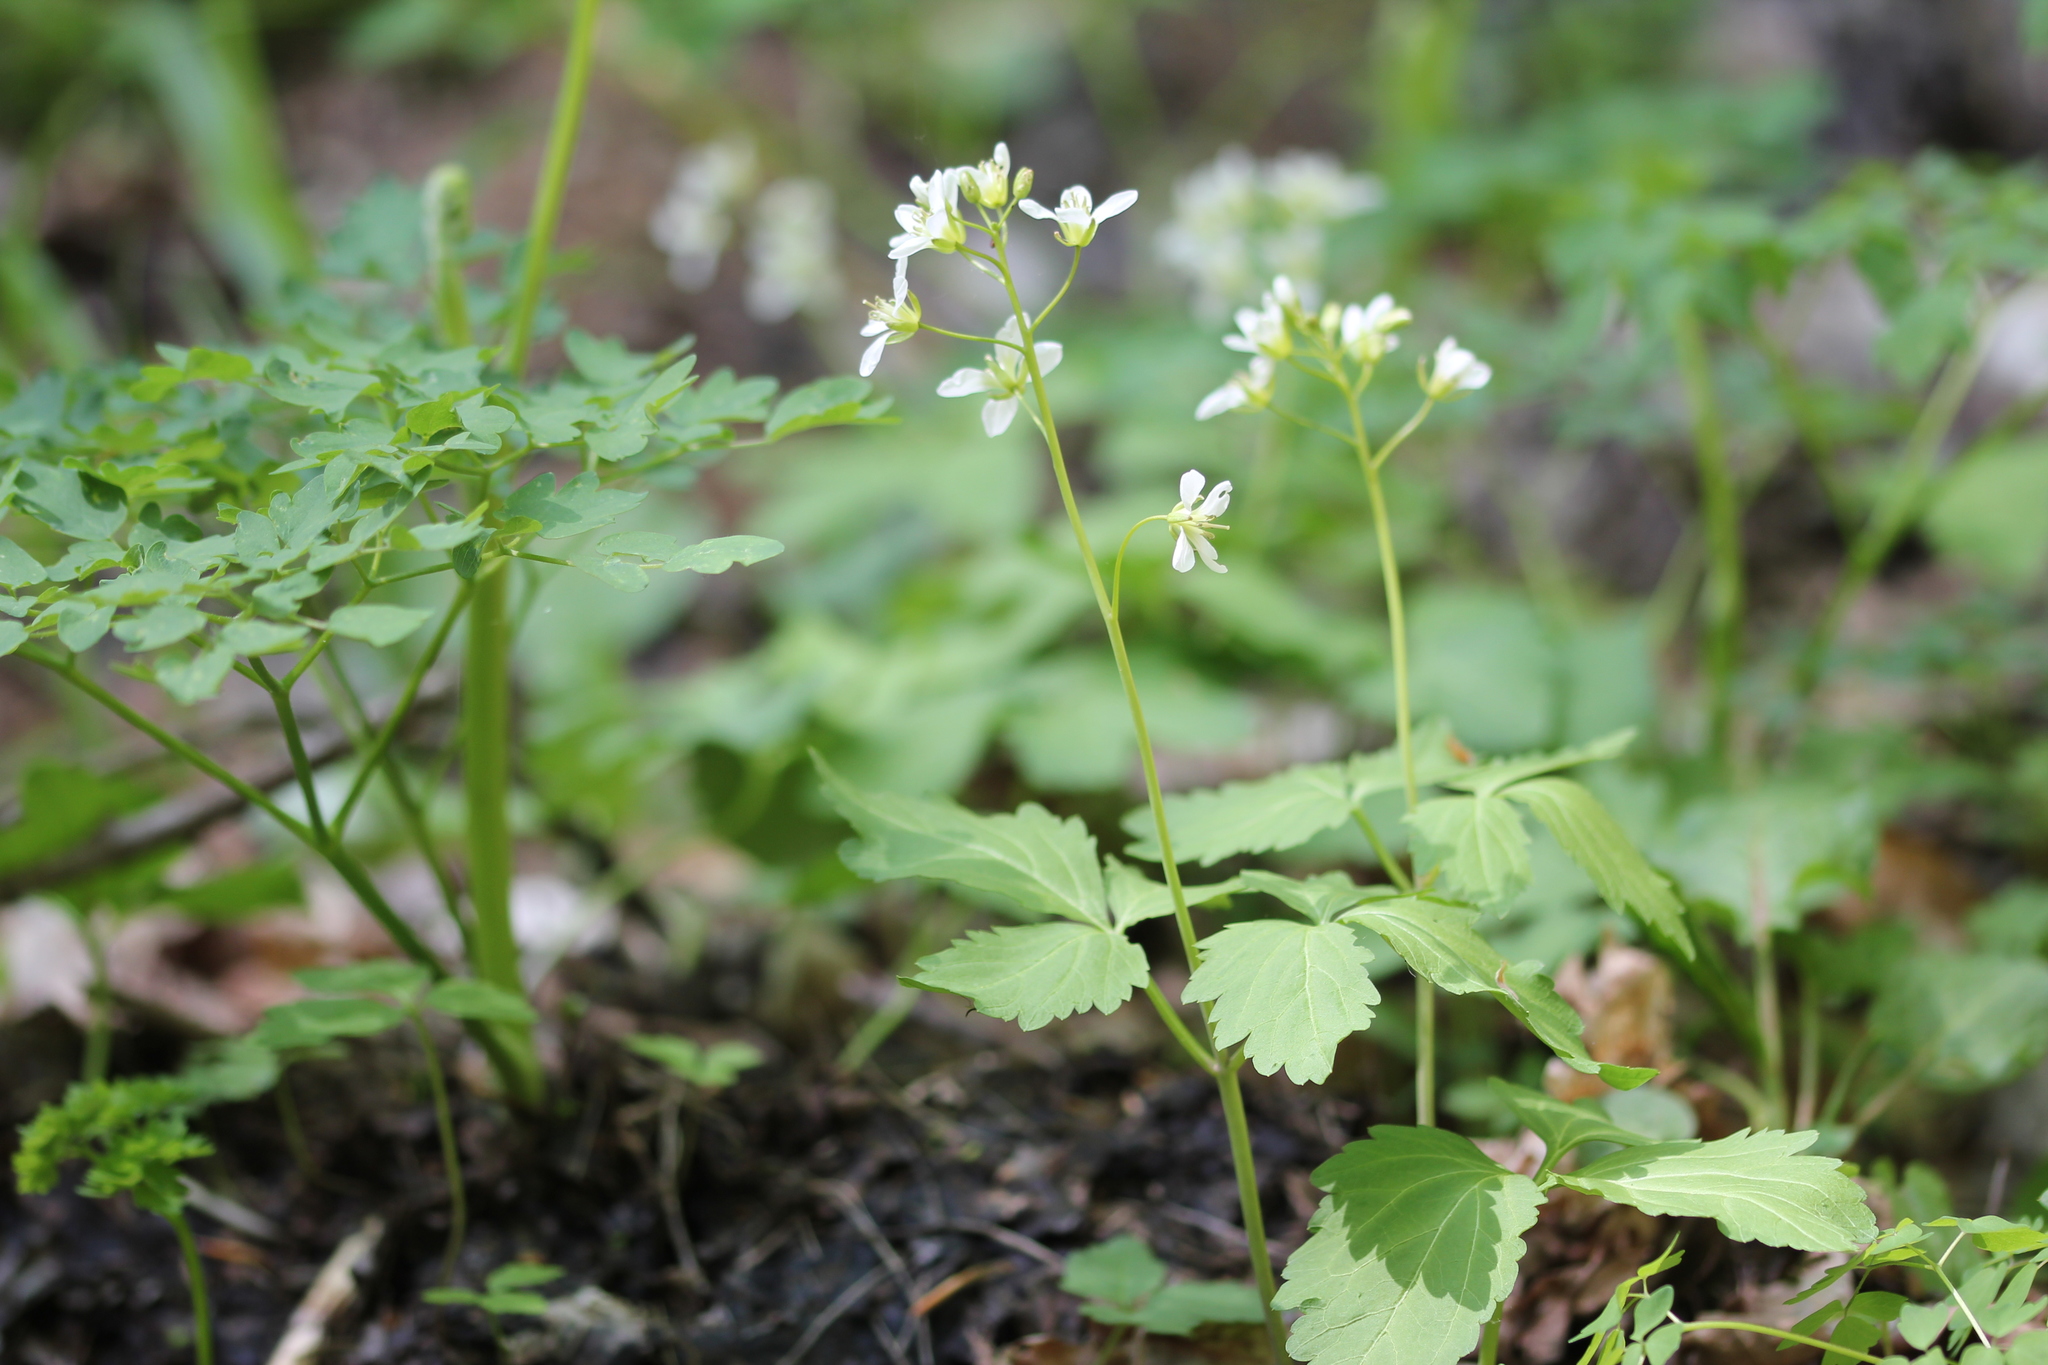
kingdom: Plantae
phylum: Tracheophyta
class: Magnoliopsida
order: Brassicales
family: Brassicaceae
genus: Cardamine
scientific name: Cardamine diphylla
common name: Broad-leaved toothwort
